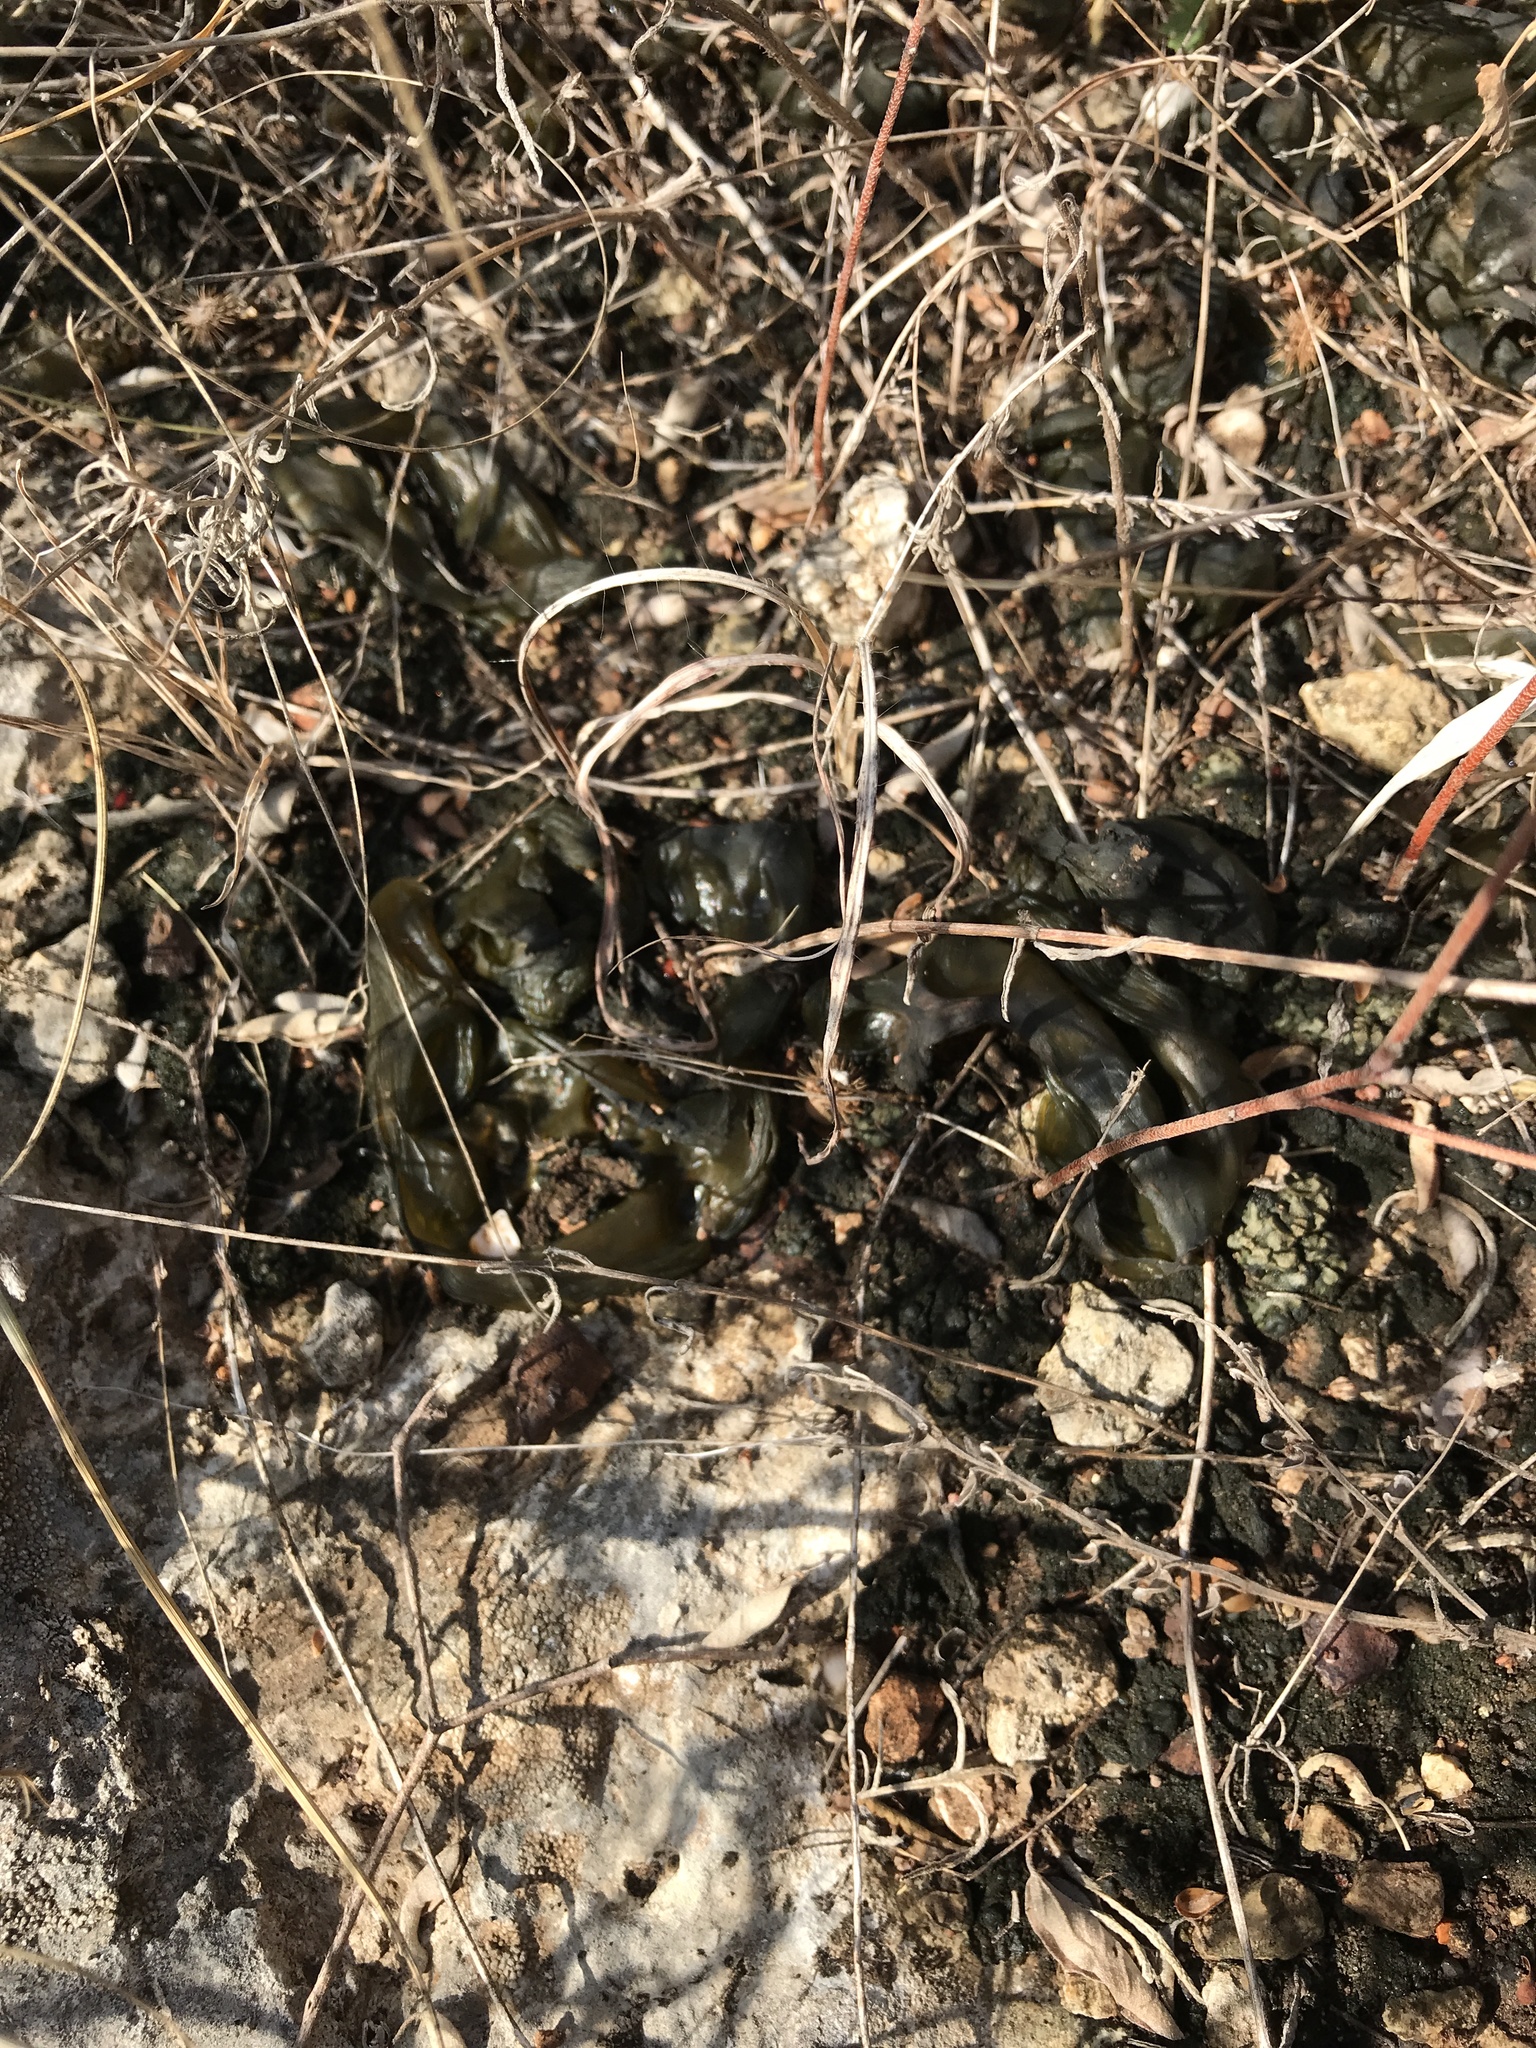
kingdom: Bacteria
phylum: Cyanobacteria
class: Cyanobacteriia
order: Cyanobacteriales
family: Nostocaceae
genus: Nostoc
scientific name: Nostoc commune
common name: Star jelly
